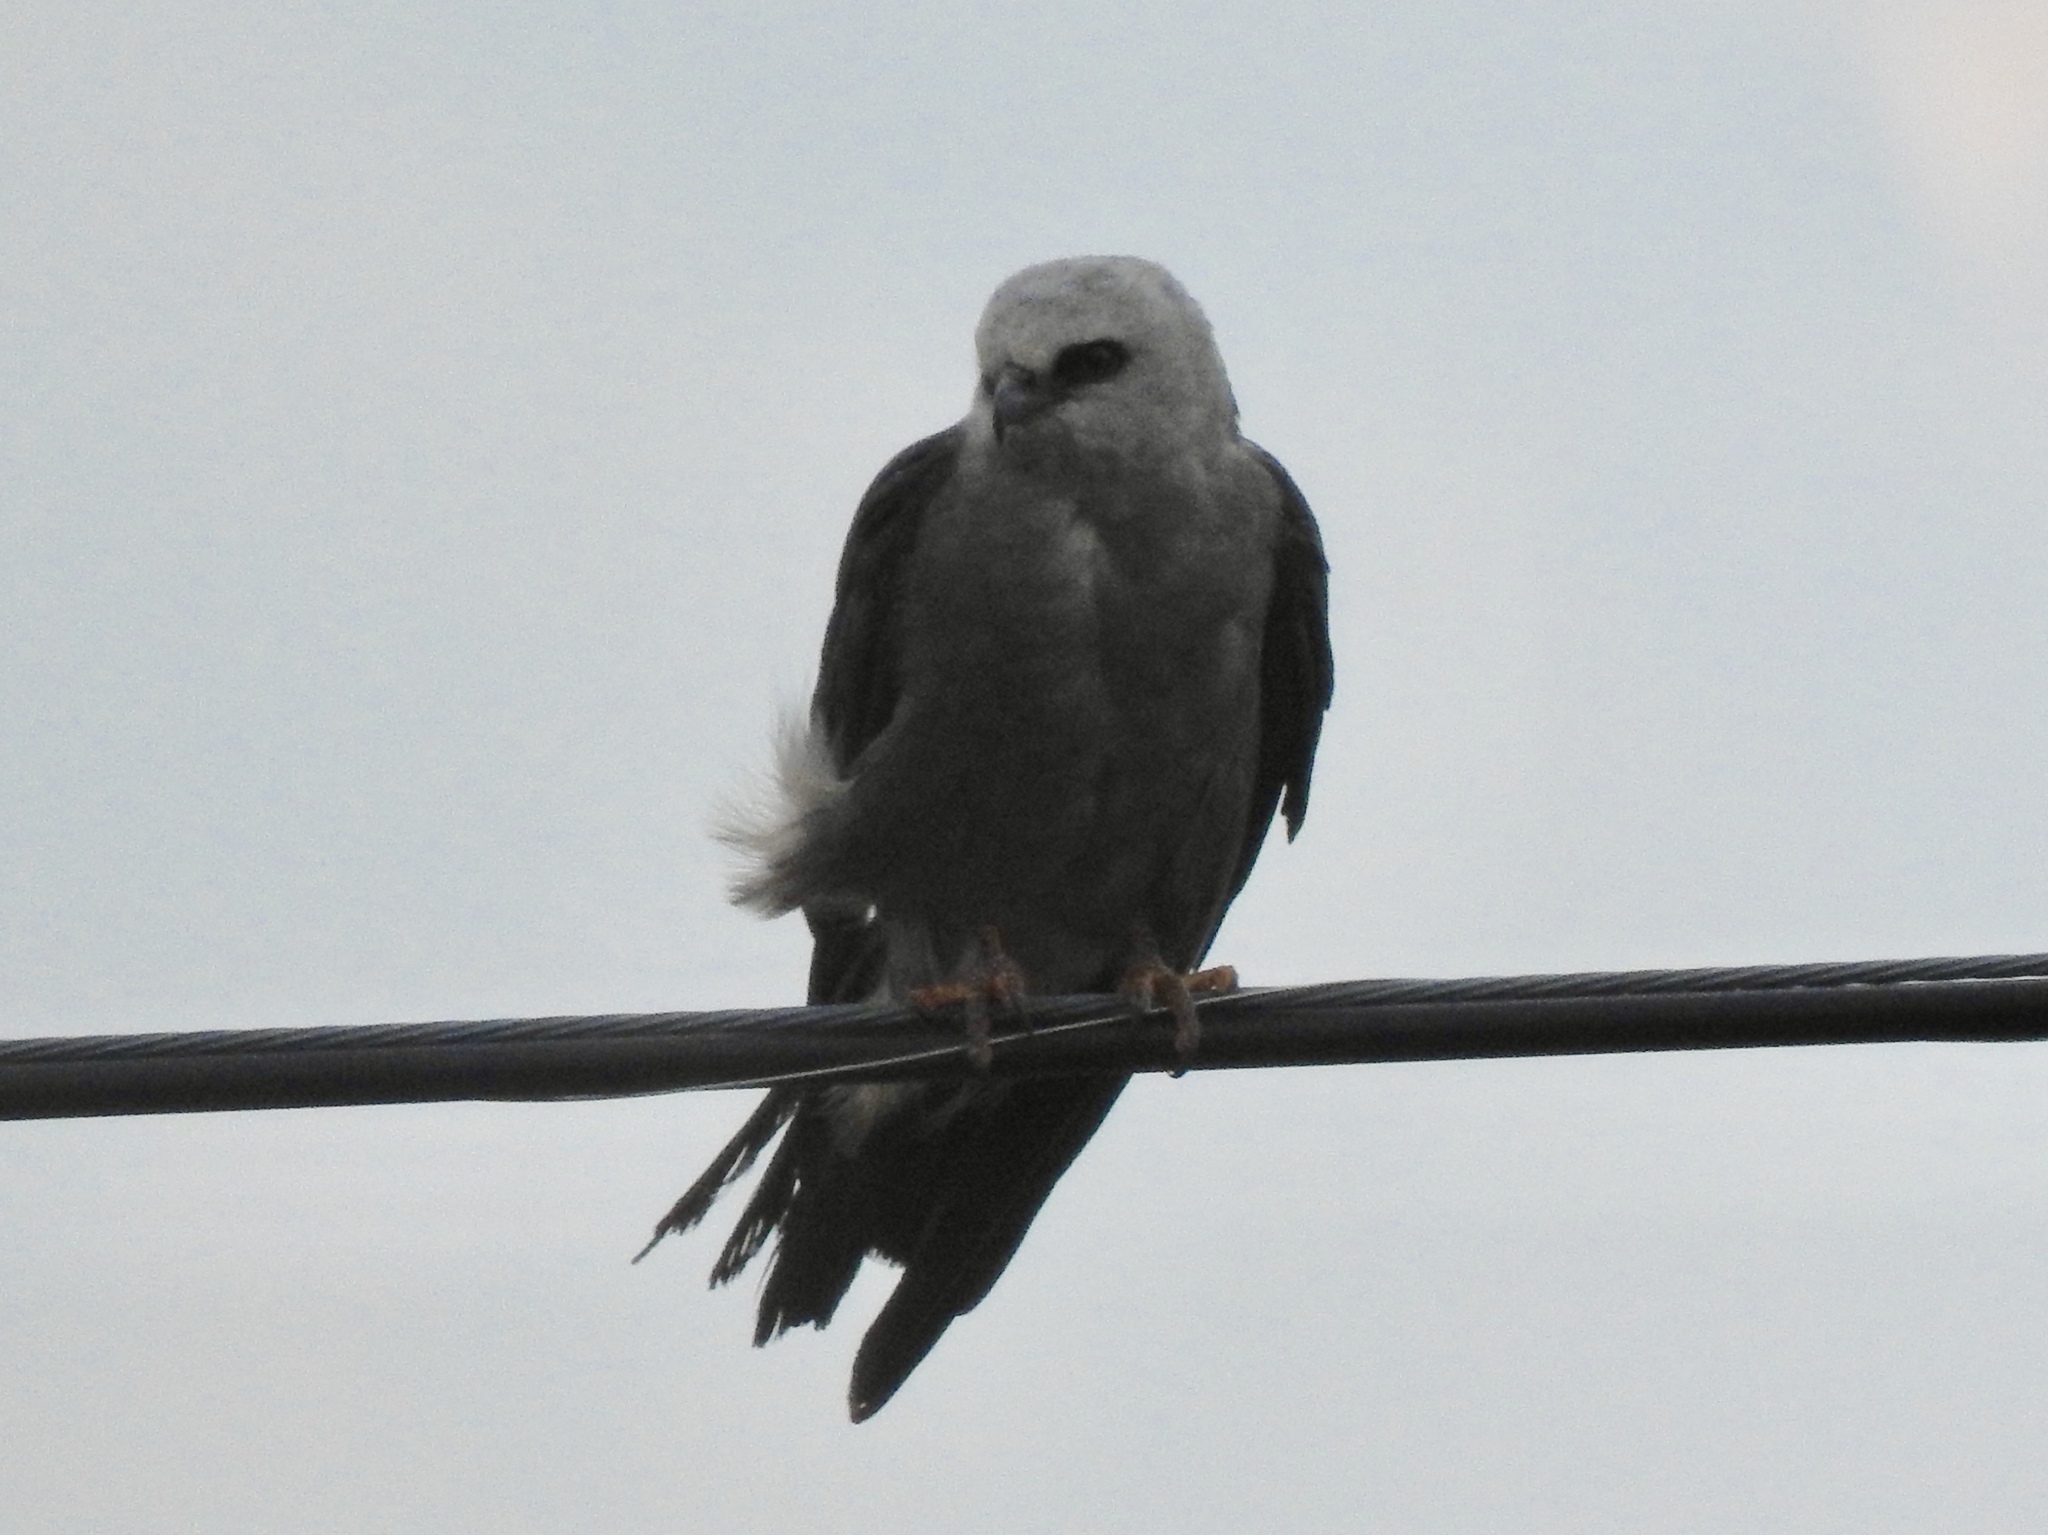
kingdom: Animalia
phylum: Chordata
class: Aves
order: Accipitriformes
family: Accipitridae
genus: Ictinia
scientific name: Ictinia mississippiensis
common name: Mississippi kite
